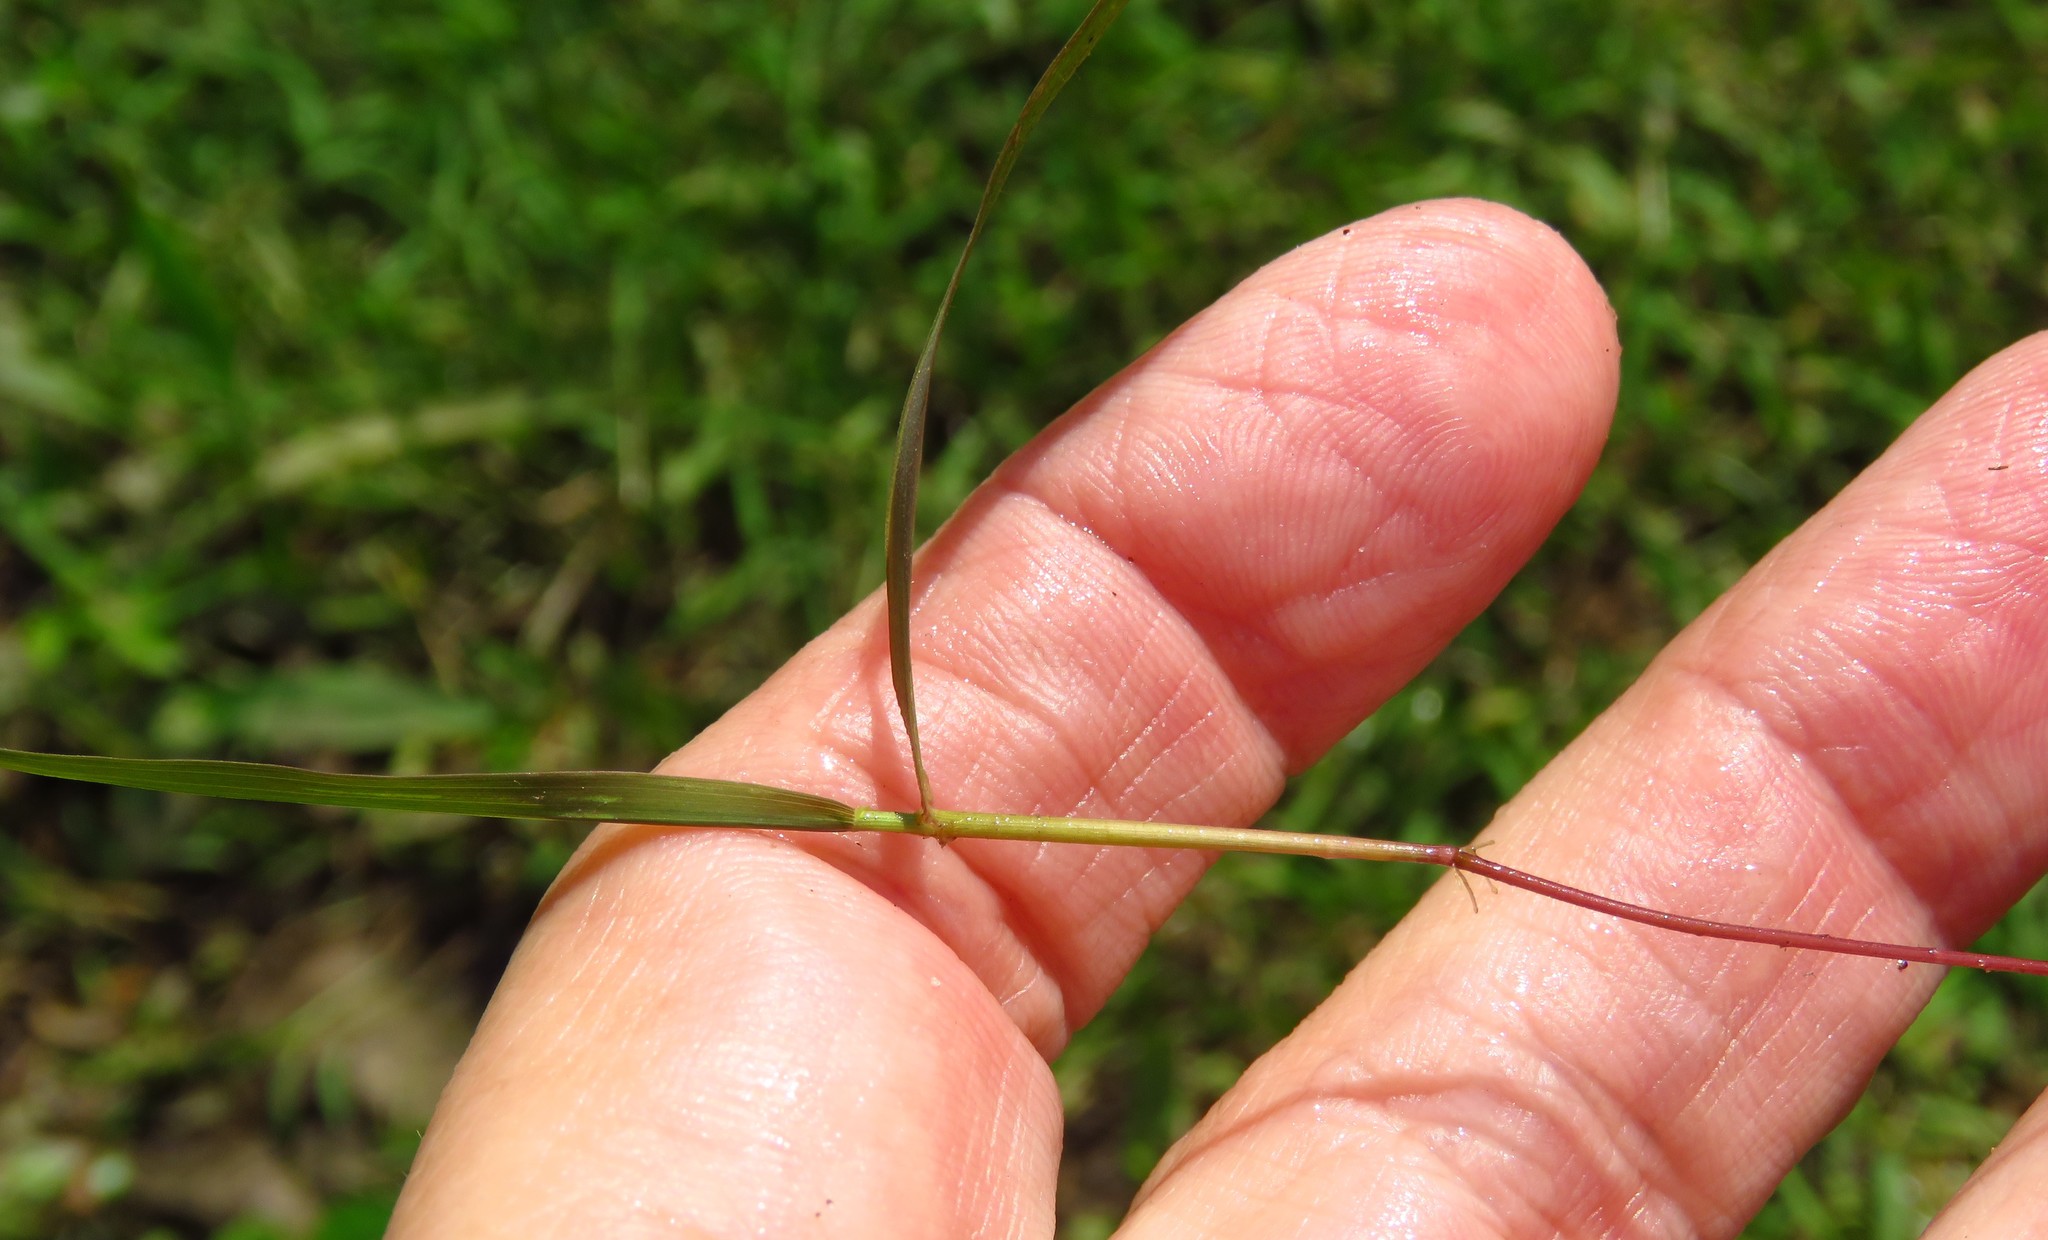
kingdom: Plantae
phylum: Tracheophyta
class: Liliopsida
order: Poales
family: Poaceae
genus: Luziola
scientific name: Luziola fluitans
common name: Silverleaf grass
